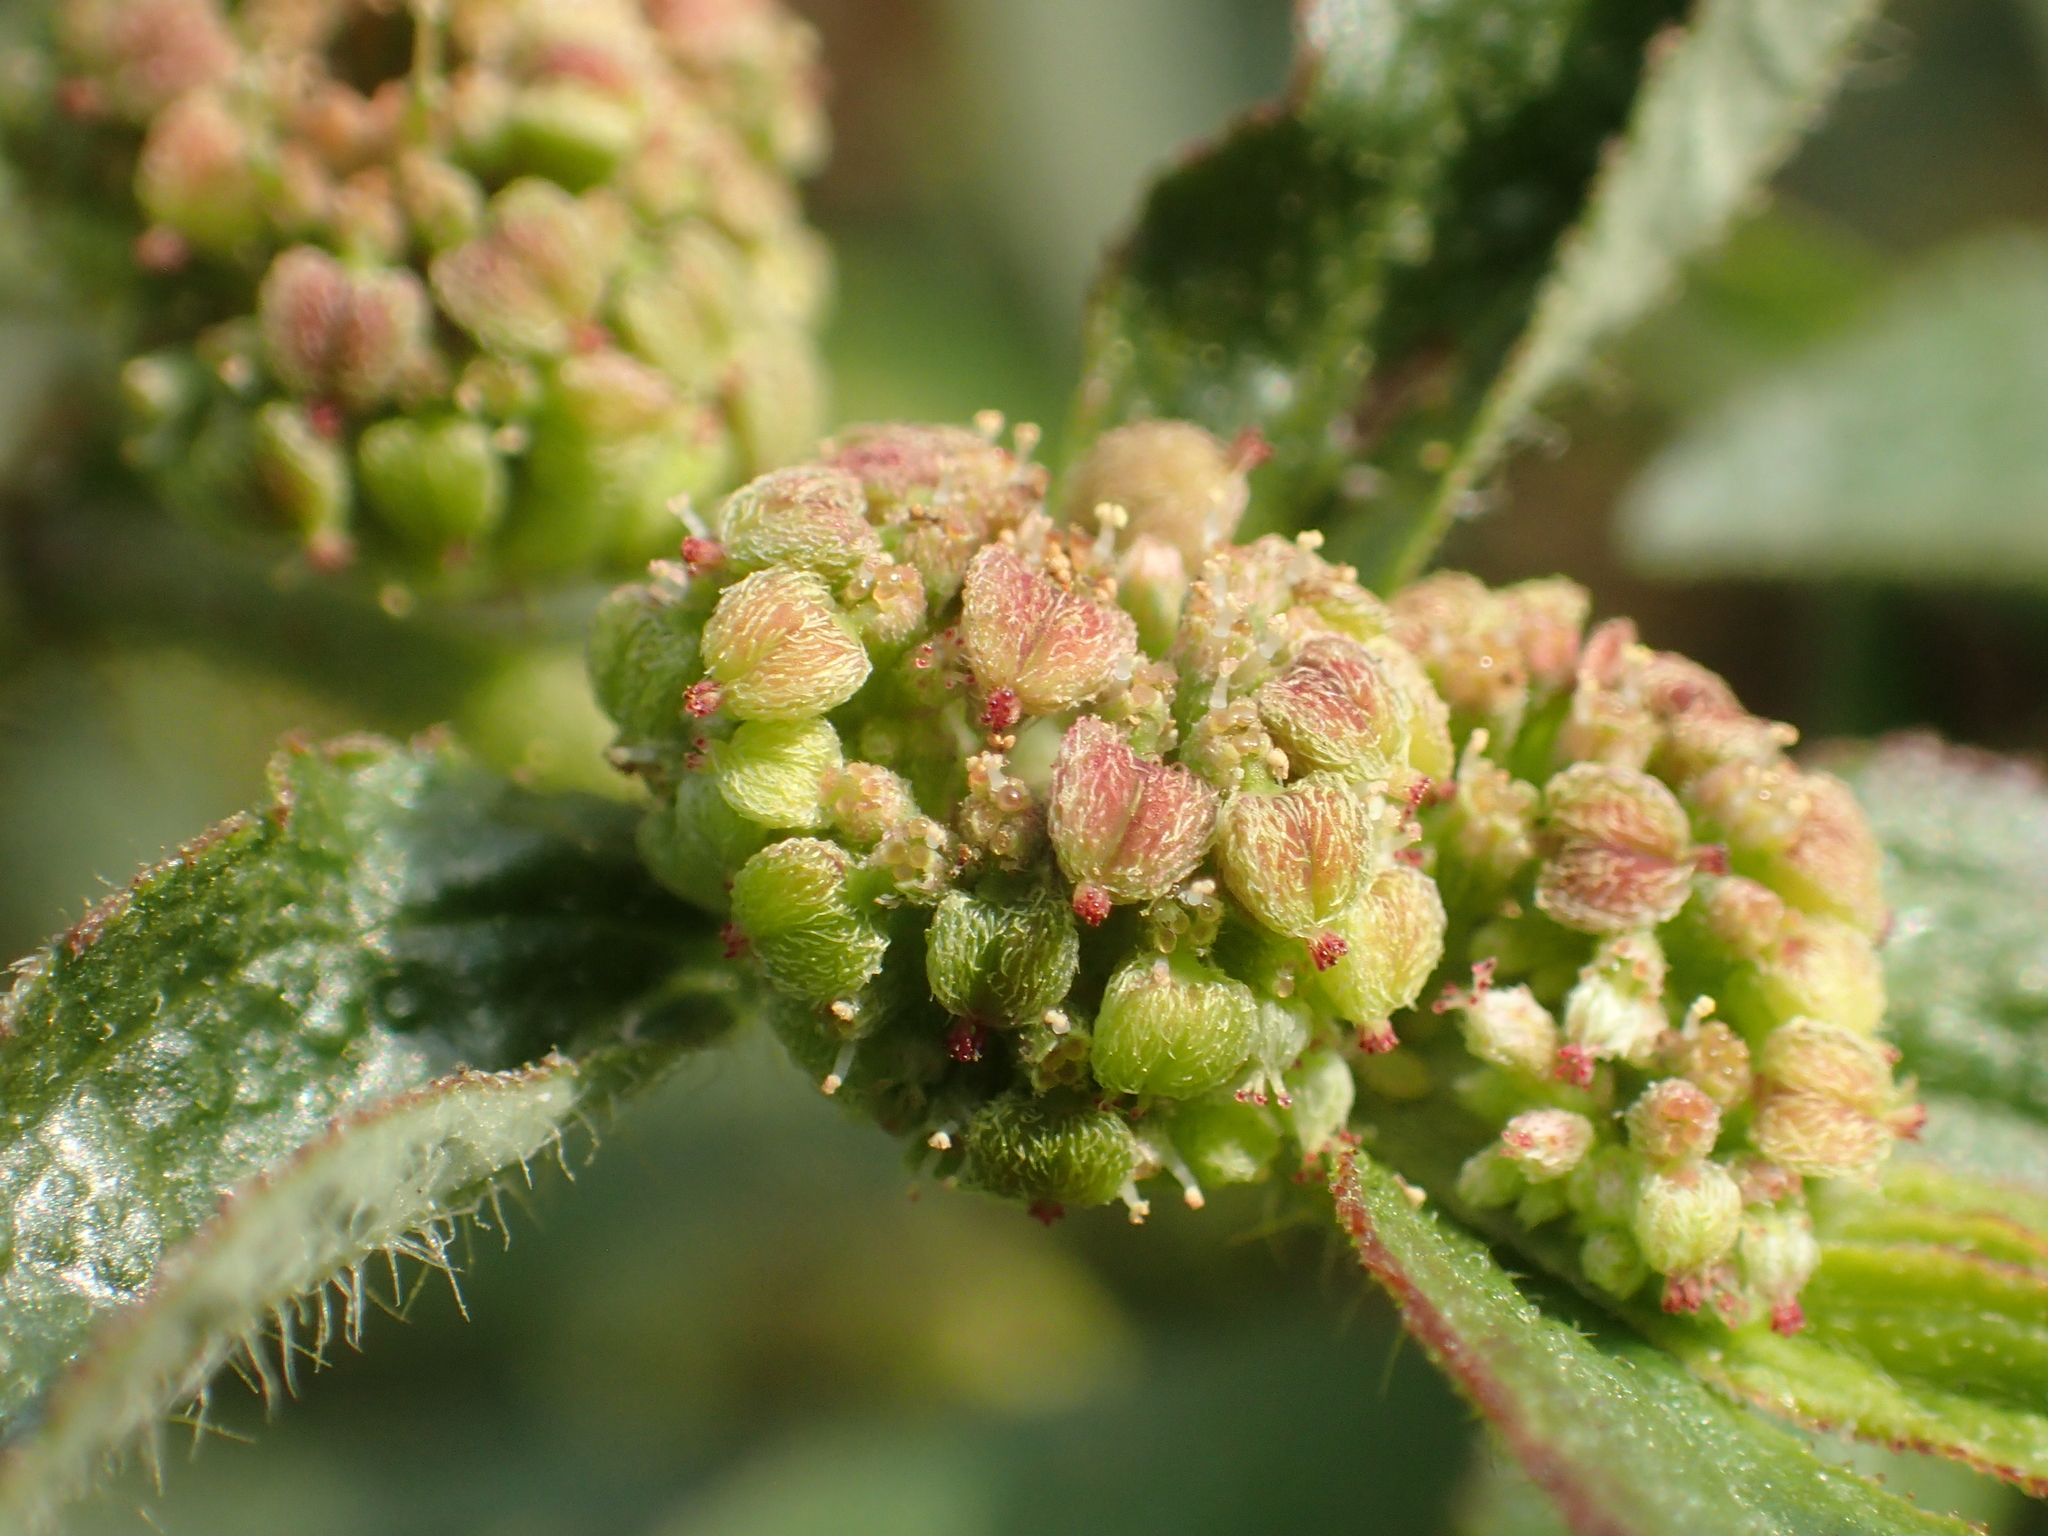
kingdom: Plantae
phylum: Tracheophyta
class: Magnoliopsida
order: Malpighiales
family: Euphorbiaceae
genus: Euphorbia
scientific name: Euphorbia hirta
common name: Pillpod sandmat
